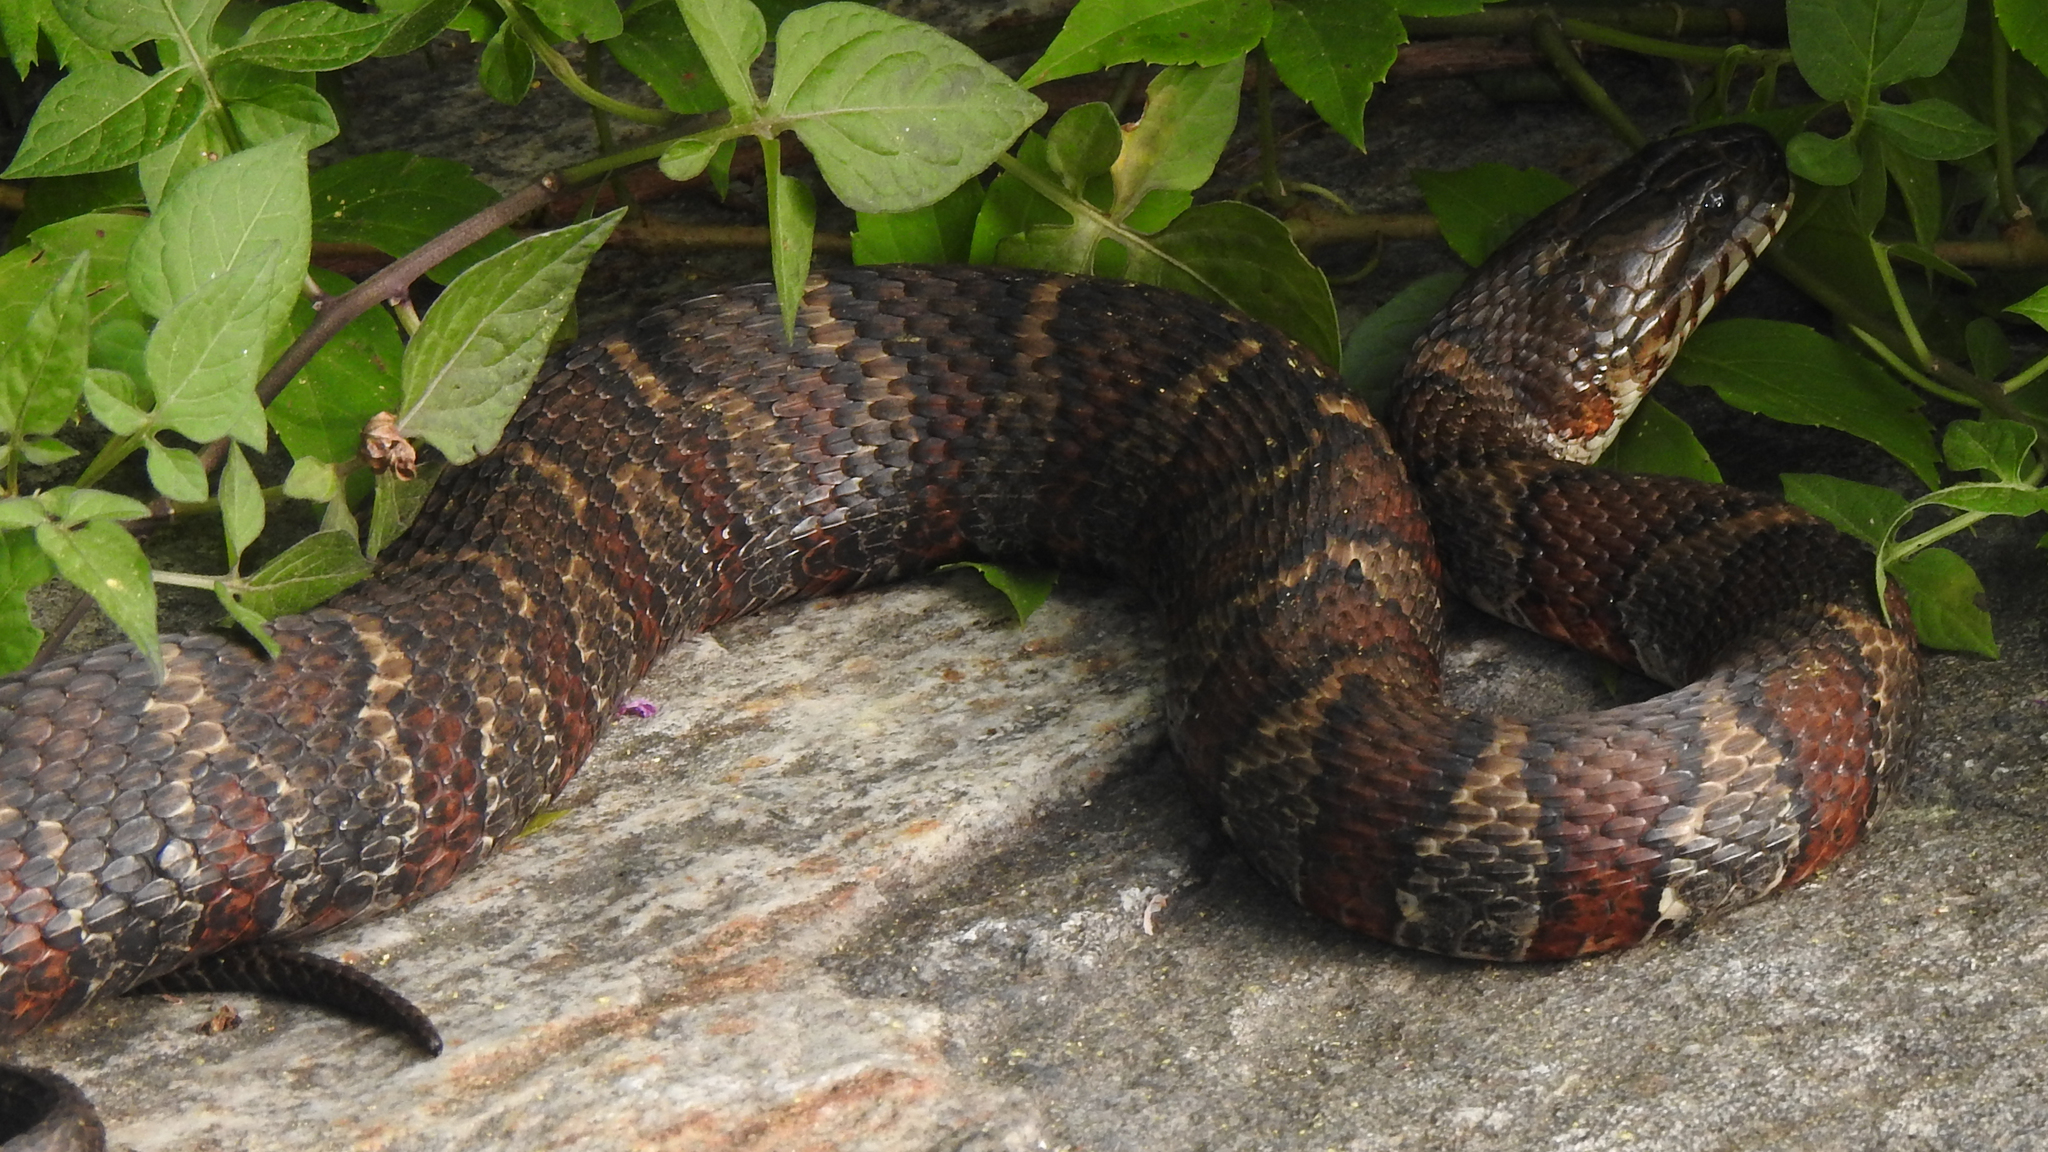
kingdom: Animalia
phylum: Chordata
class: Squamata
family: Colubridae
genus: Nerodia
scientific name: Nerodia sipedon
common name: Northern water snake
